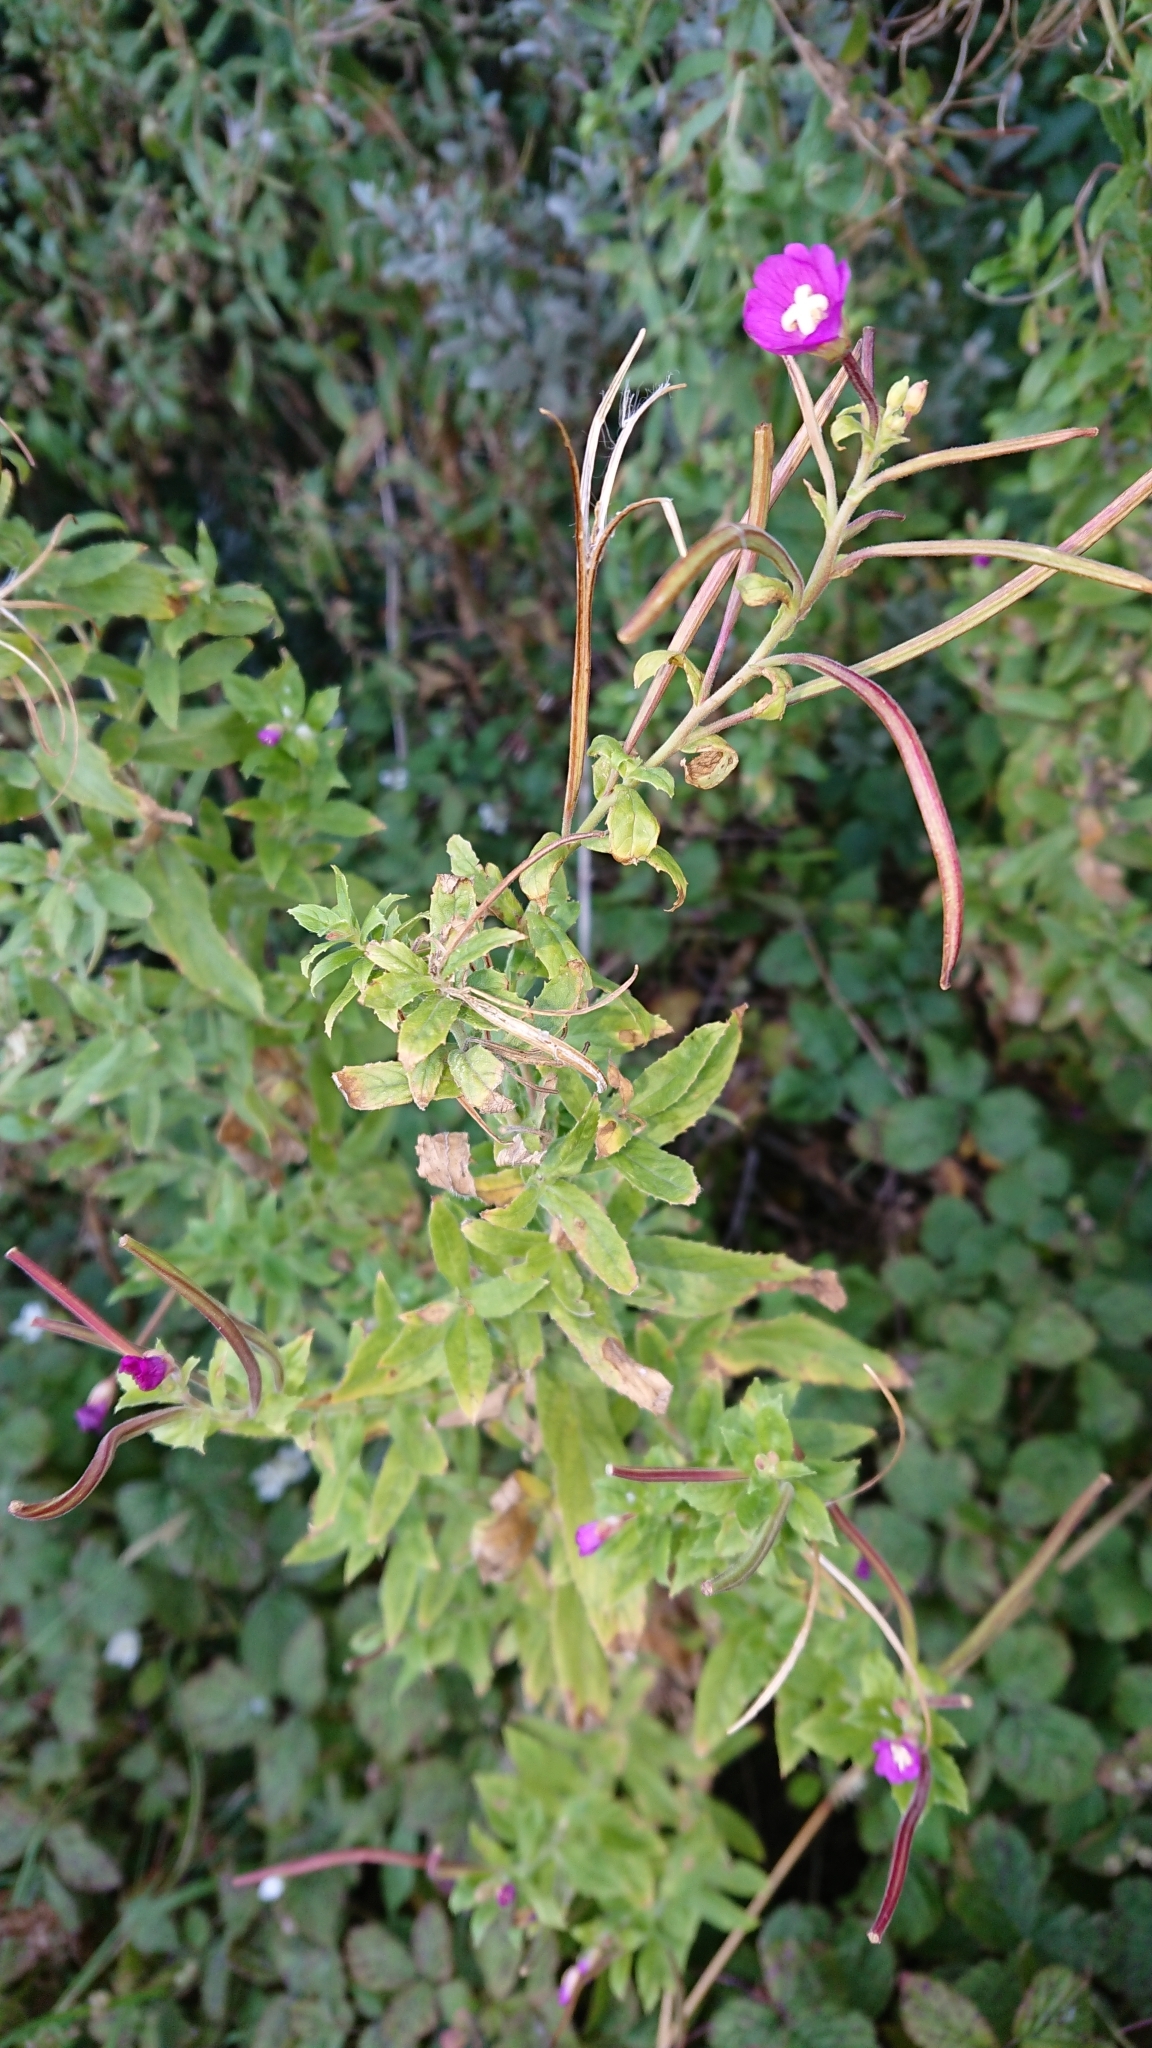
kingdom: Plantae
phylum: Tracheophyta
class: Magnoliopsida
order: Myrtales
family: Onagraceae
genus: Epilobium
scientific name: Epilobium hirsutum
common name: Great willowherb
